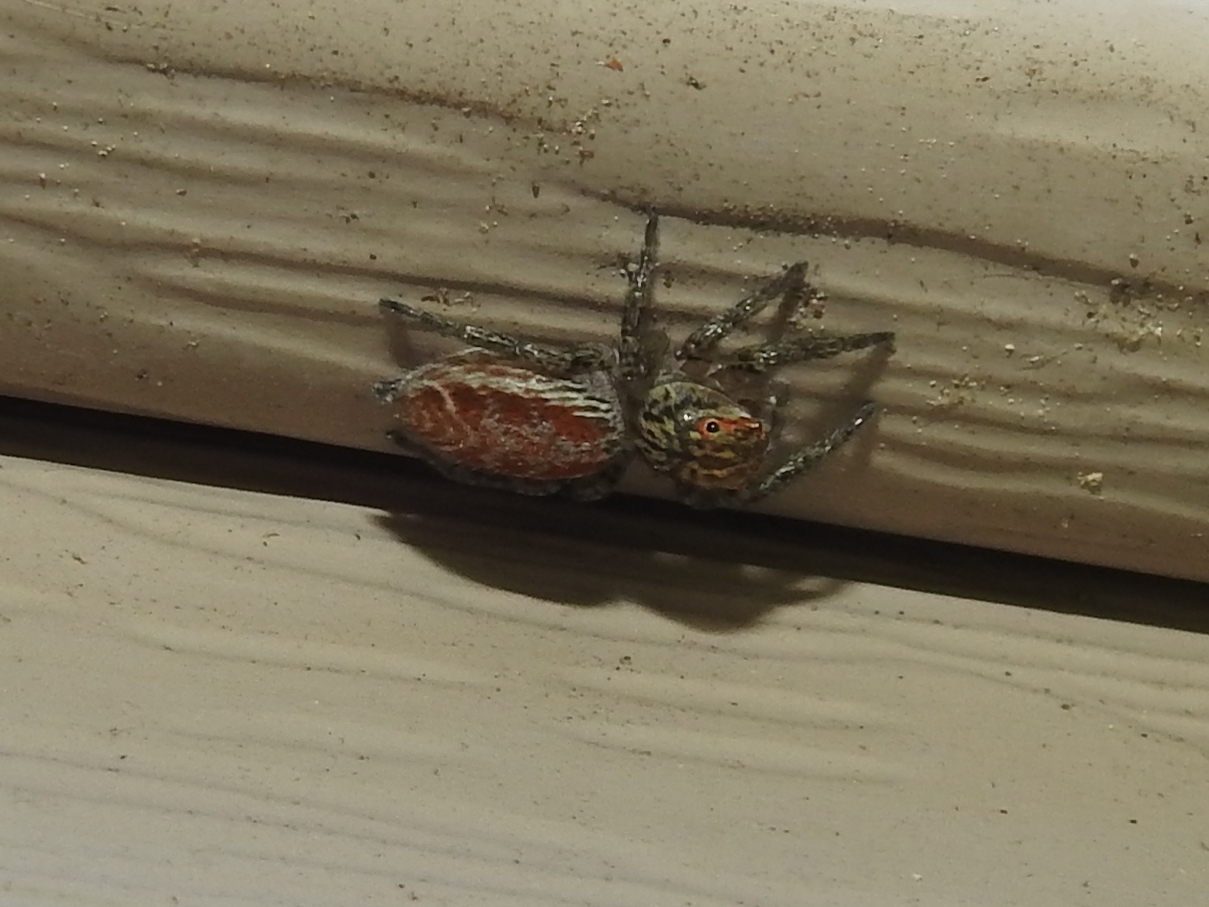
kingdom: Animalia
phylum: Arthropoda
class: Arachnida
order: Araneae
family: Salticidae
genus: Maevia
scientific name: Maevia inclemens
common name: Dimorphic jumper
